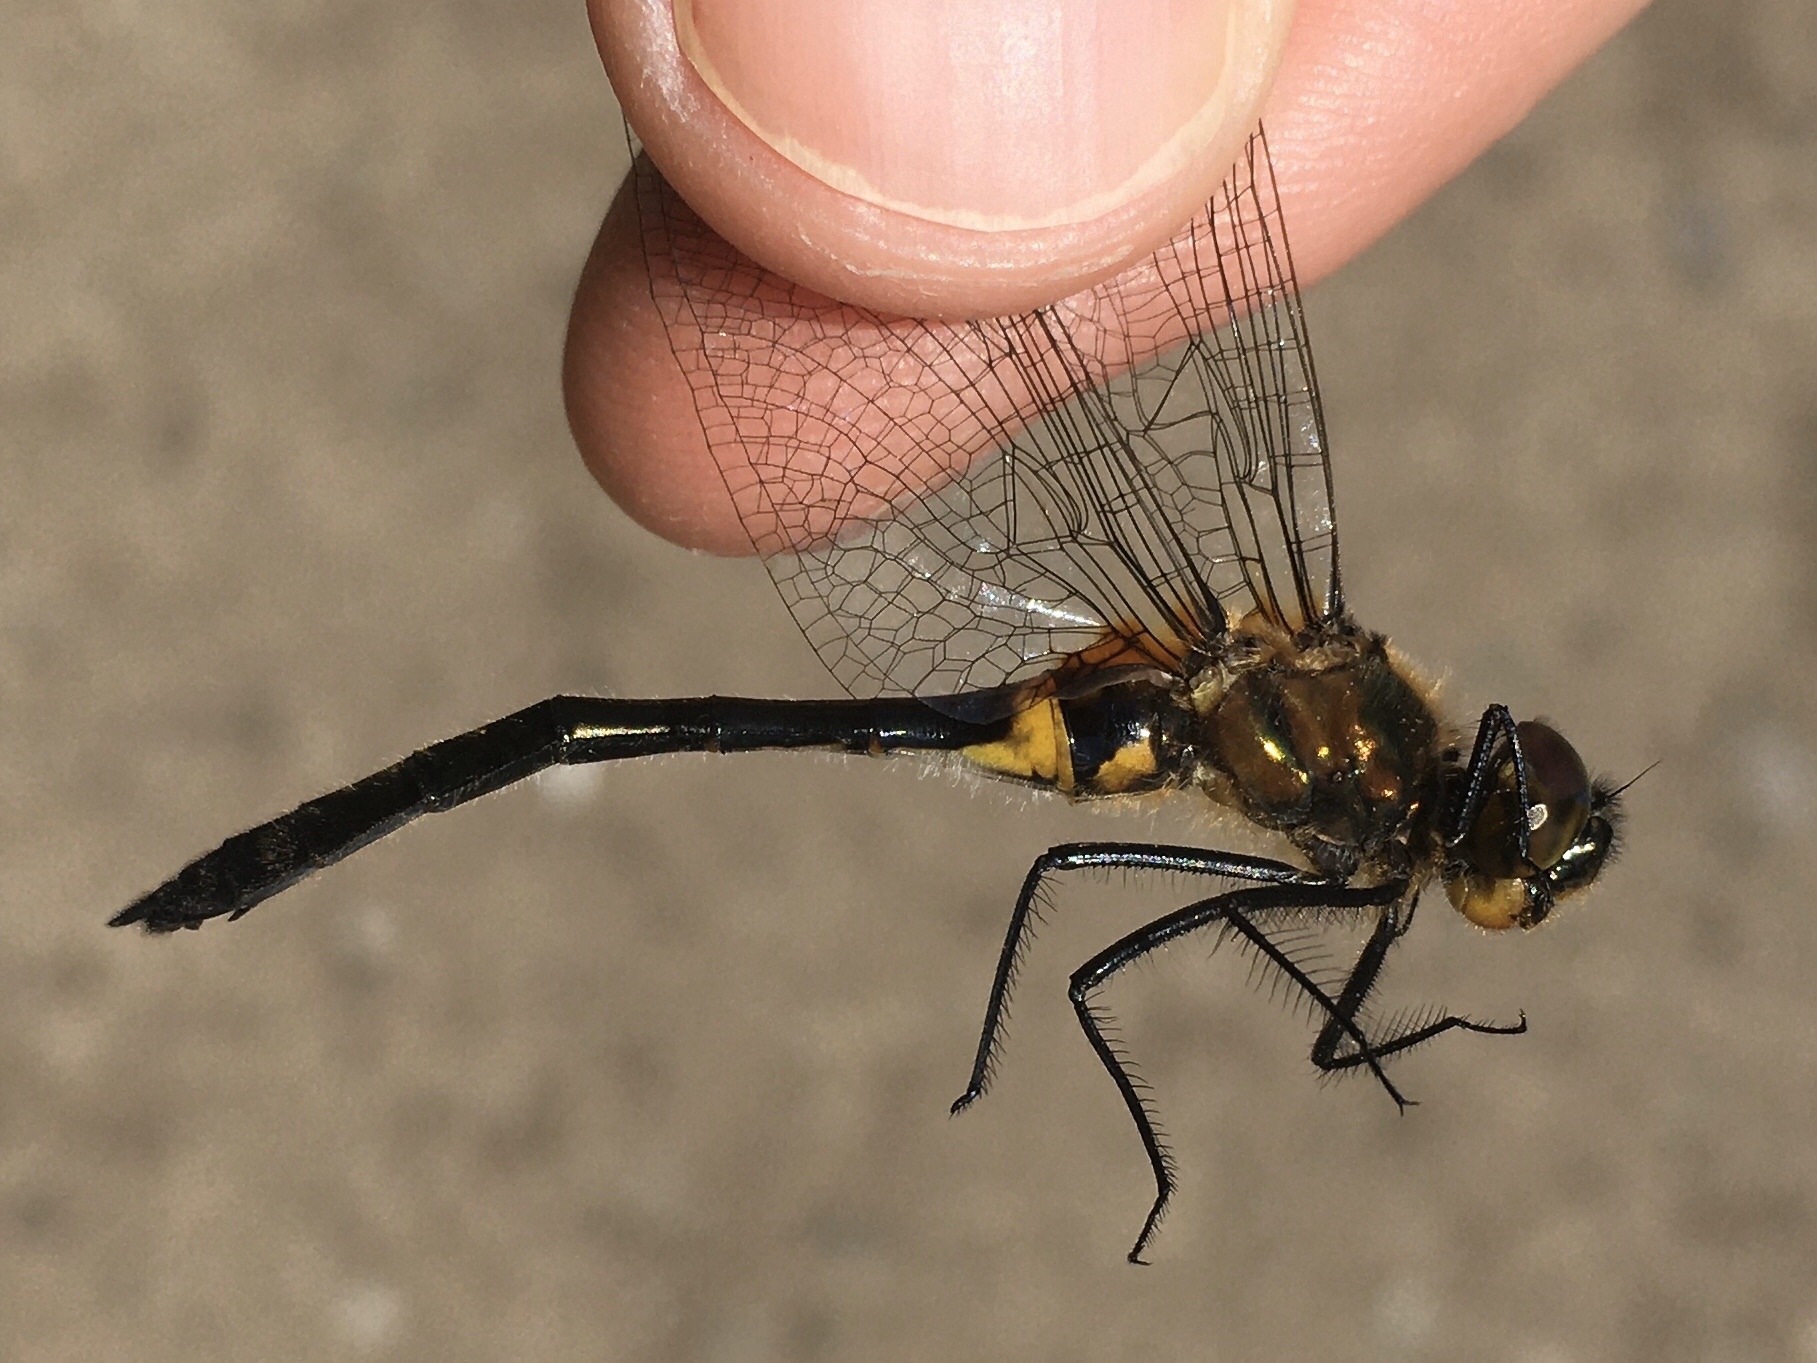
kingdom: Animalia
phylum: Arthropoda
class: Insecta
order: Odonata
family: Corduliidae
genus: Dorocordulia
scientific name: Dorocordulia libera
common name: Racket-tailed emerald
